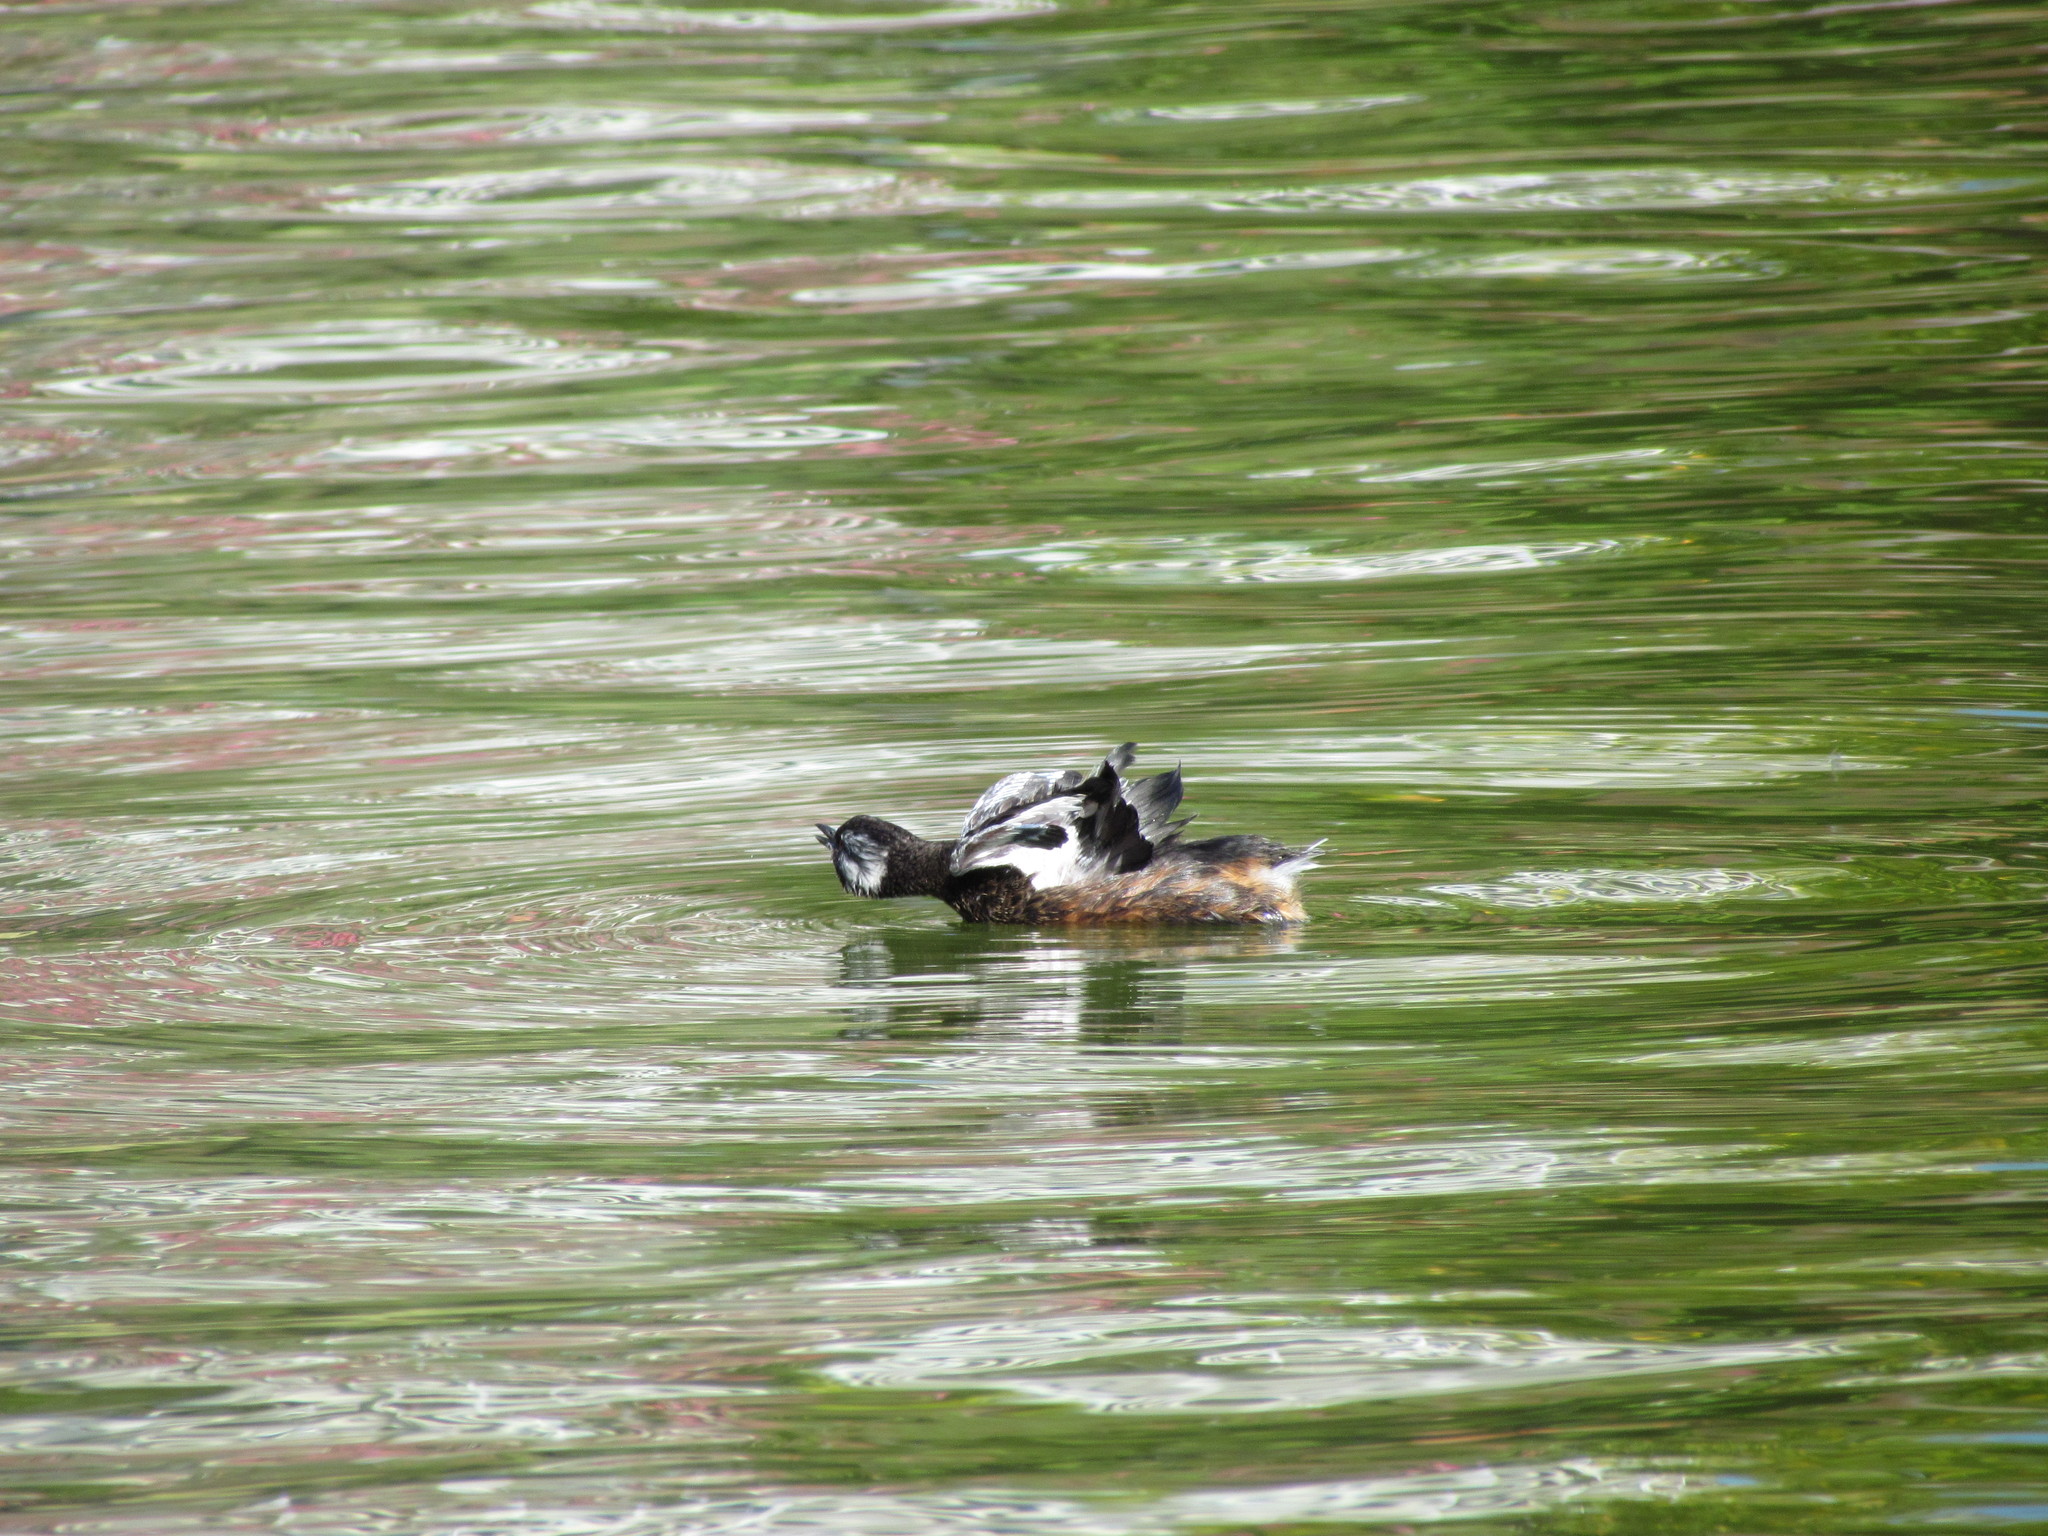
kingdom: Animalia
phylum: Chordata
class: Aves
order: Podicipediformes
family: Podicipedidae
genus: Rollandia
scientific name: Rollandia rolland
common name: White-tufted grebe
